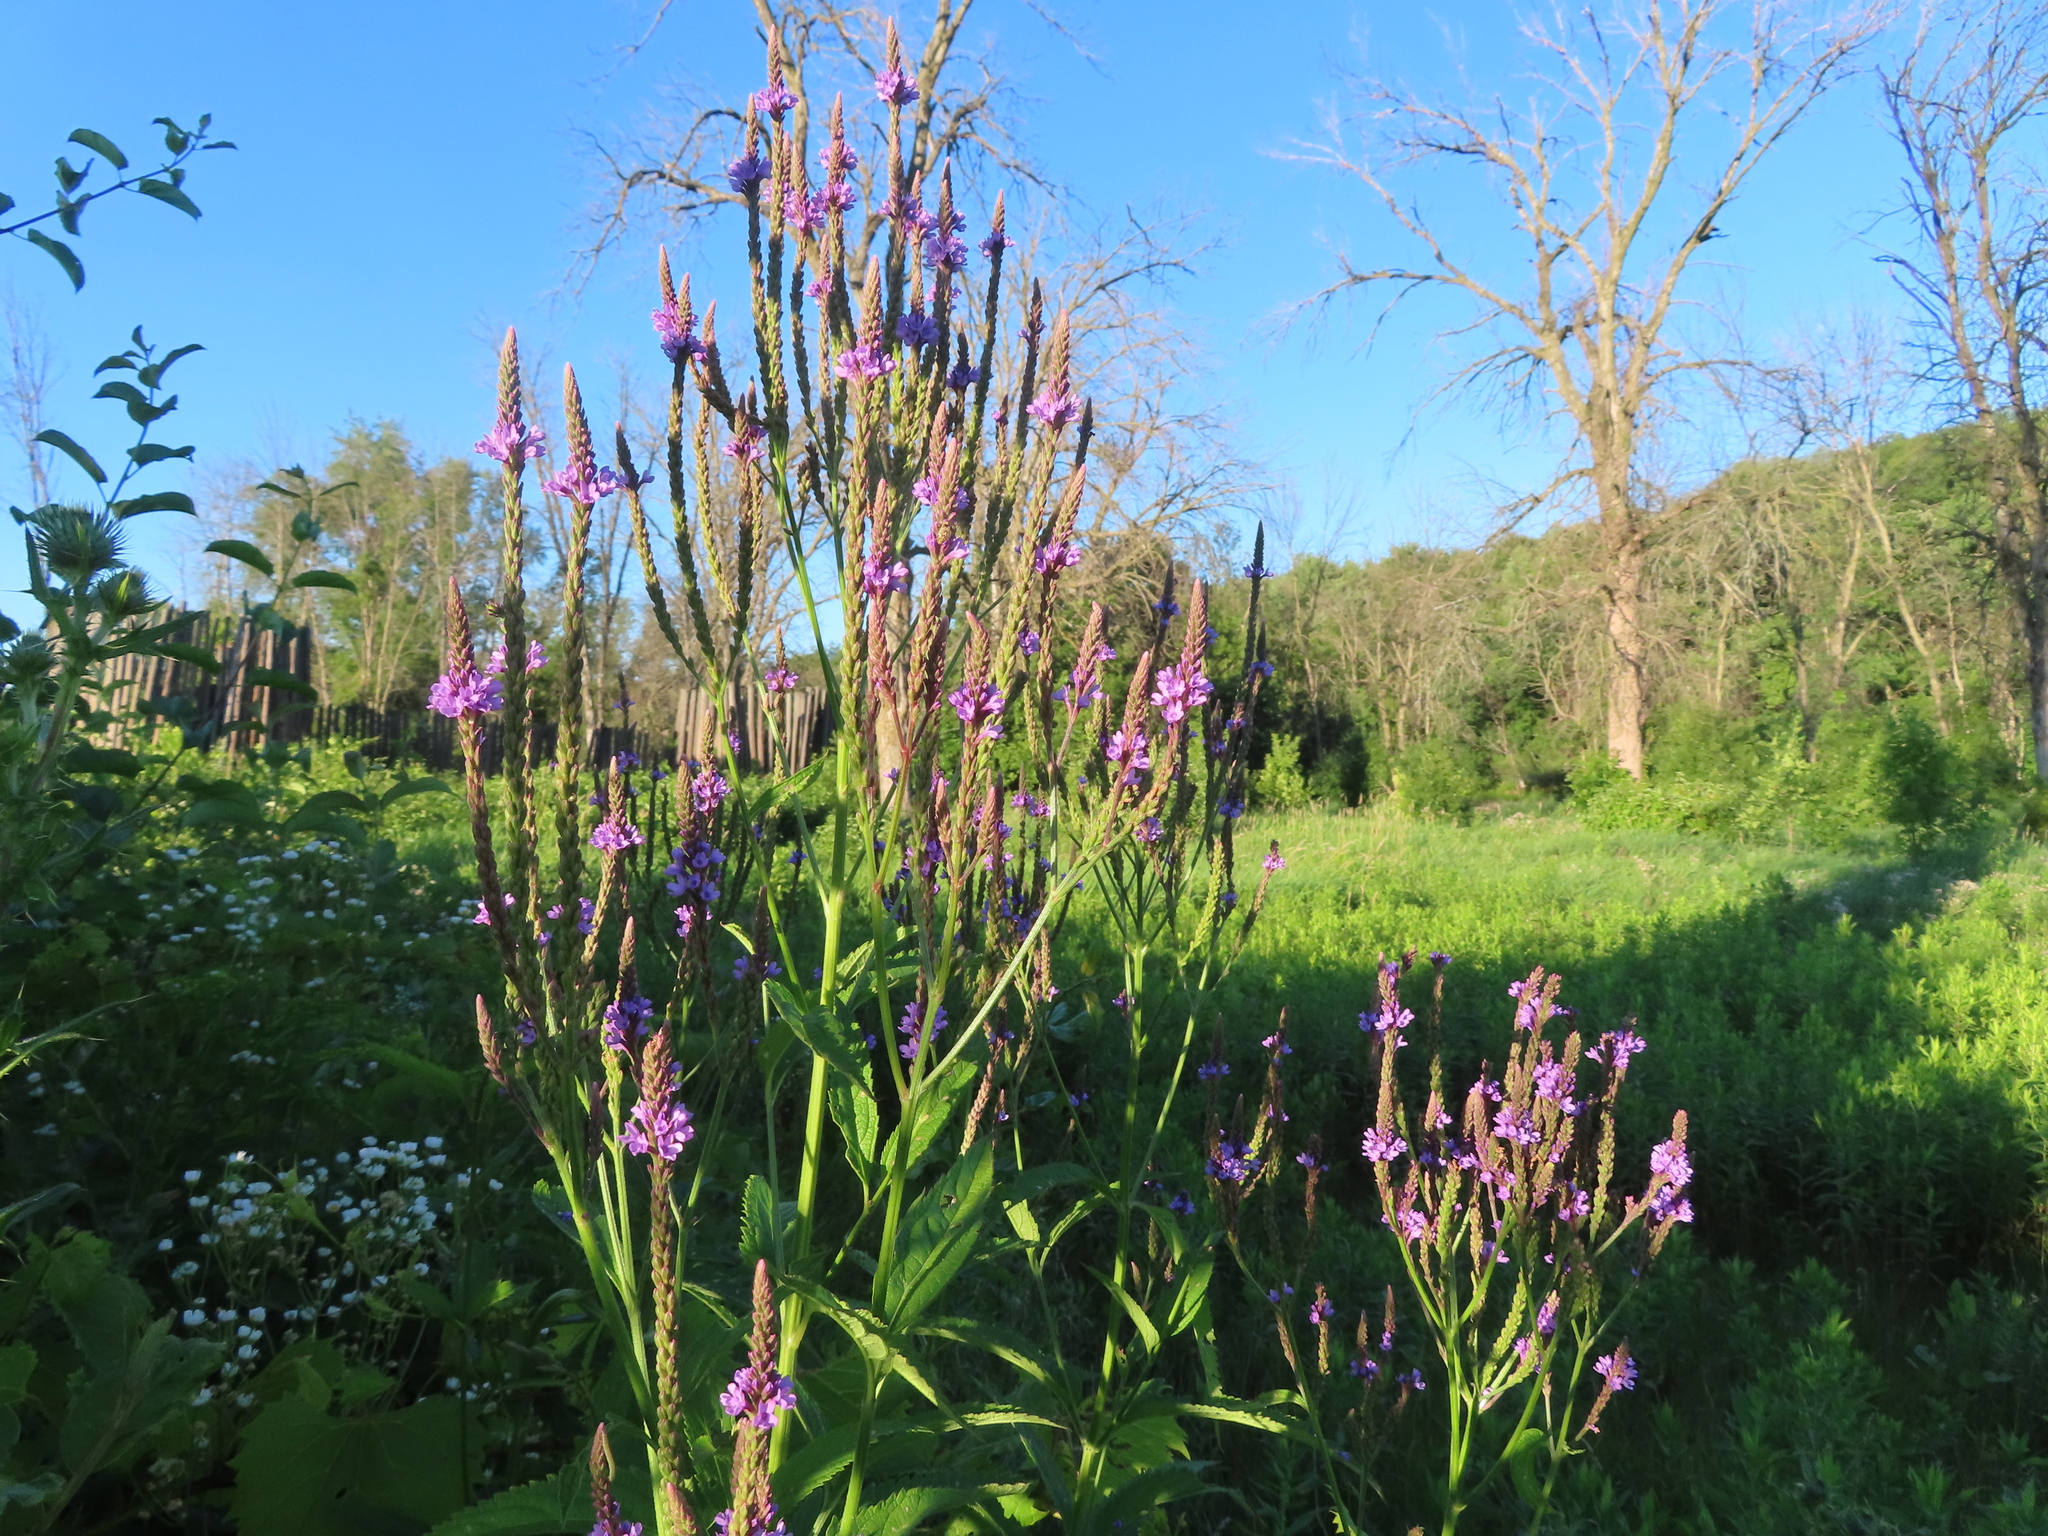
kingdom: Plantae
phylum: Tracheophyta
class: Magnoliopsida
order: Lamiales
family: Verbenaceae
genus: Verbena
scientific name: Verbena hastata
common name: American blue vervain
